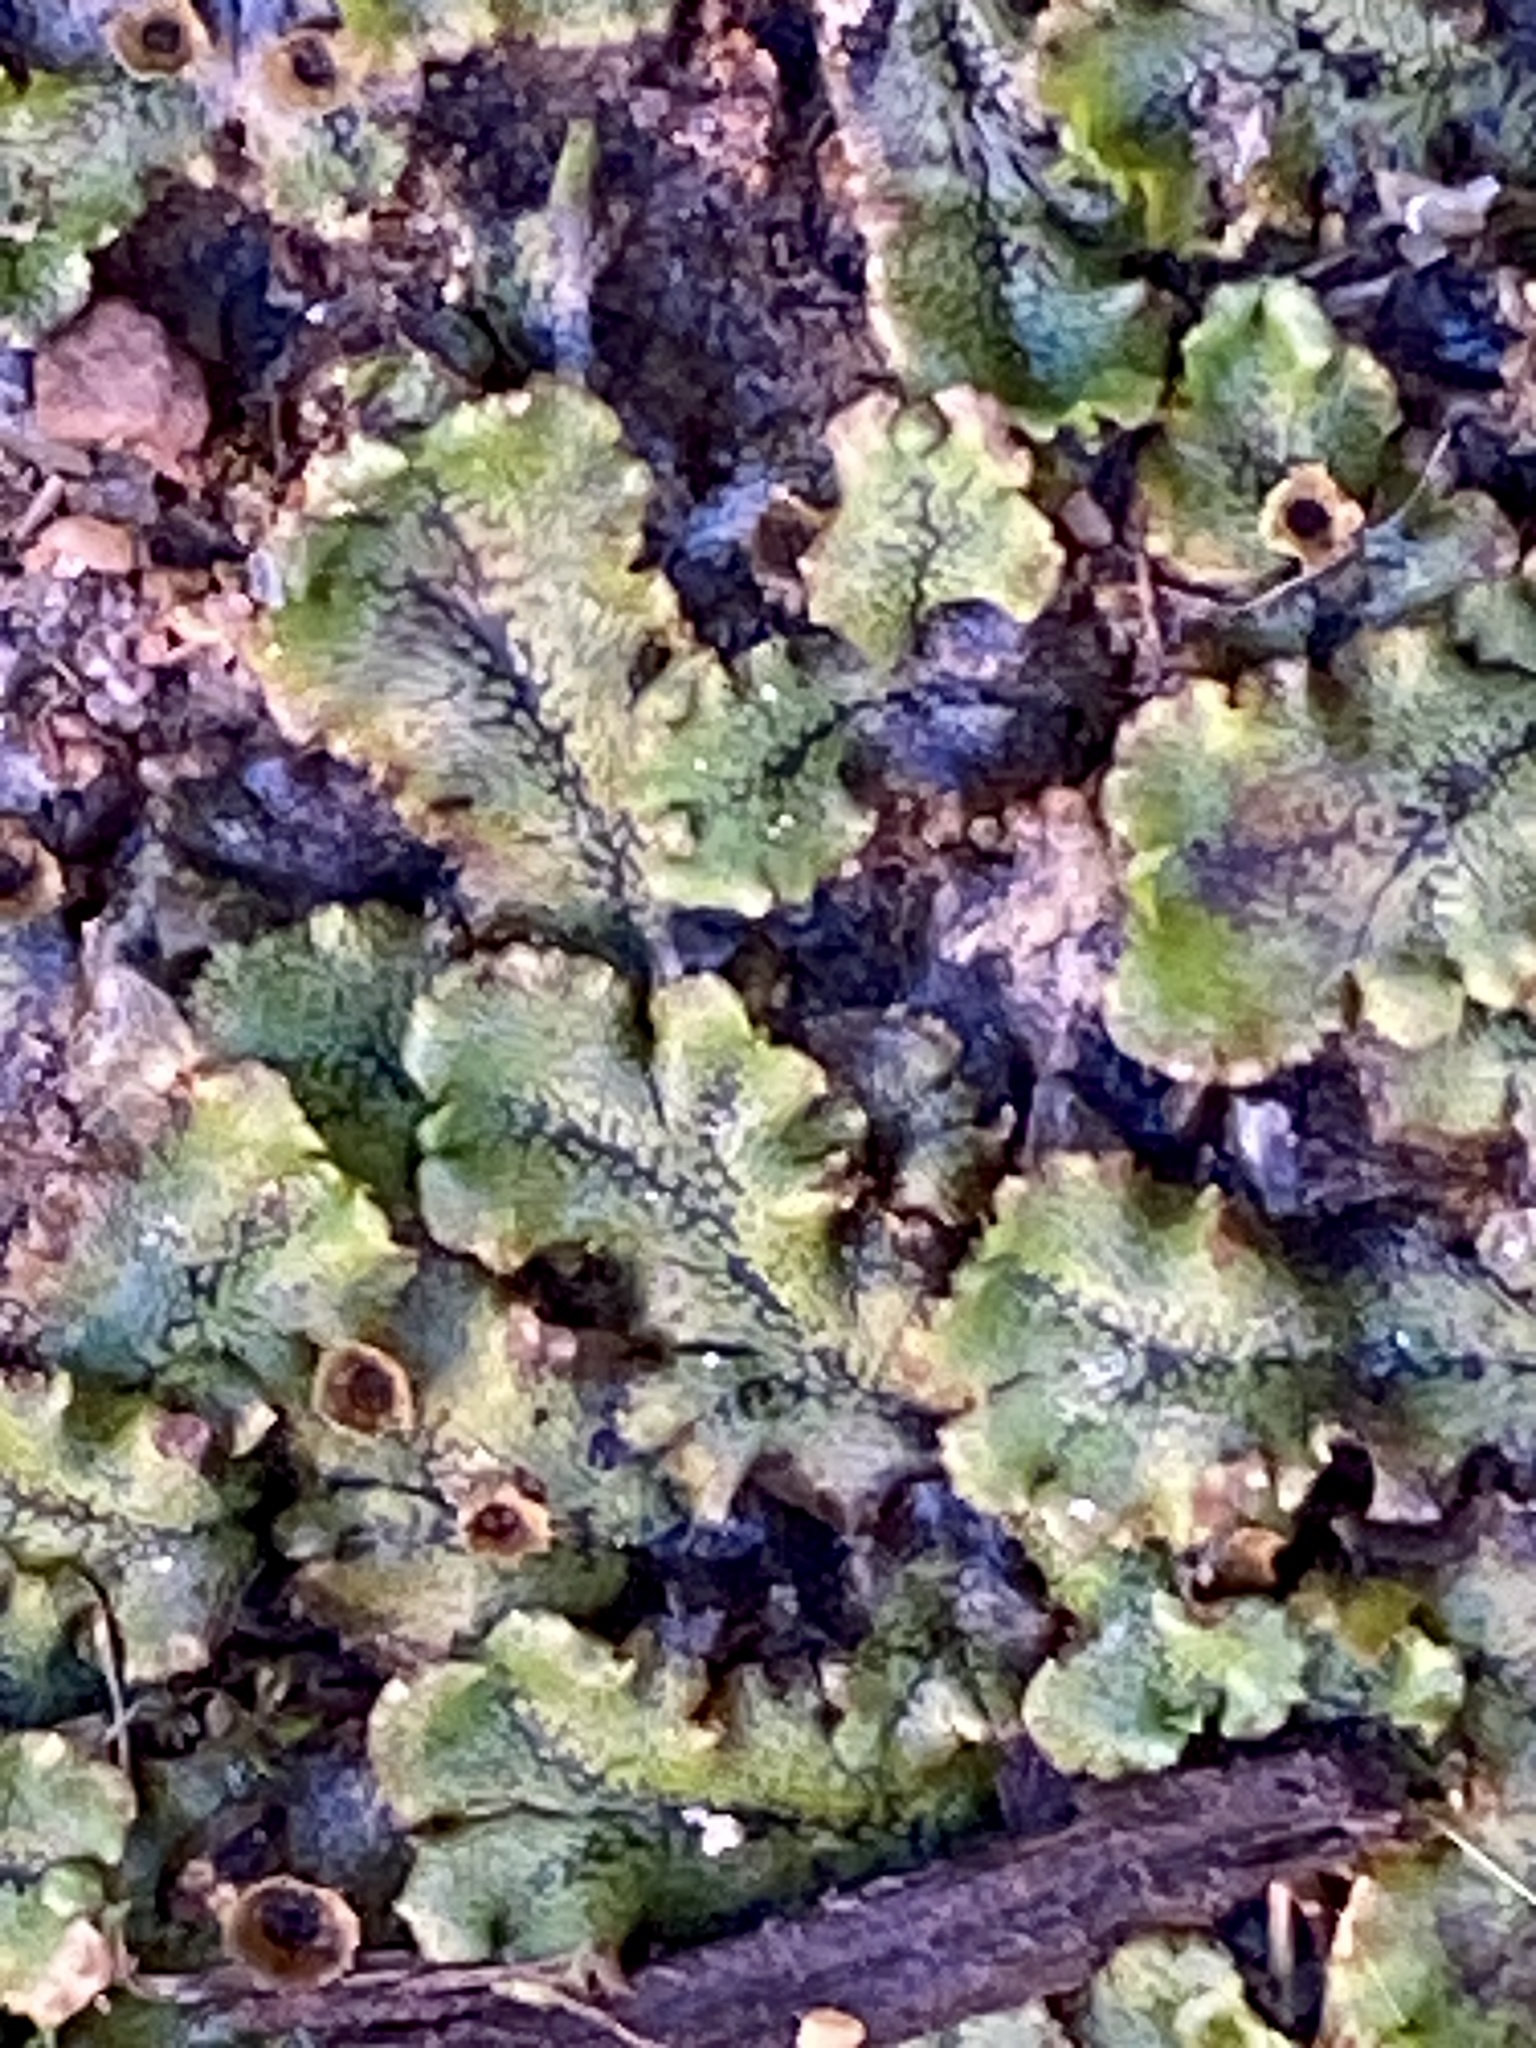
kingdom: Plantae
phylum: Marchantiophyta
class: Marchantiopsida
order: Marchantiales
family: Marchantiaceae
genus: Marchantia
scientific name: Marchantia polymorpha
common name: Common liverwort
